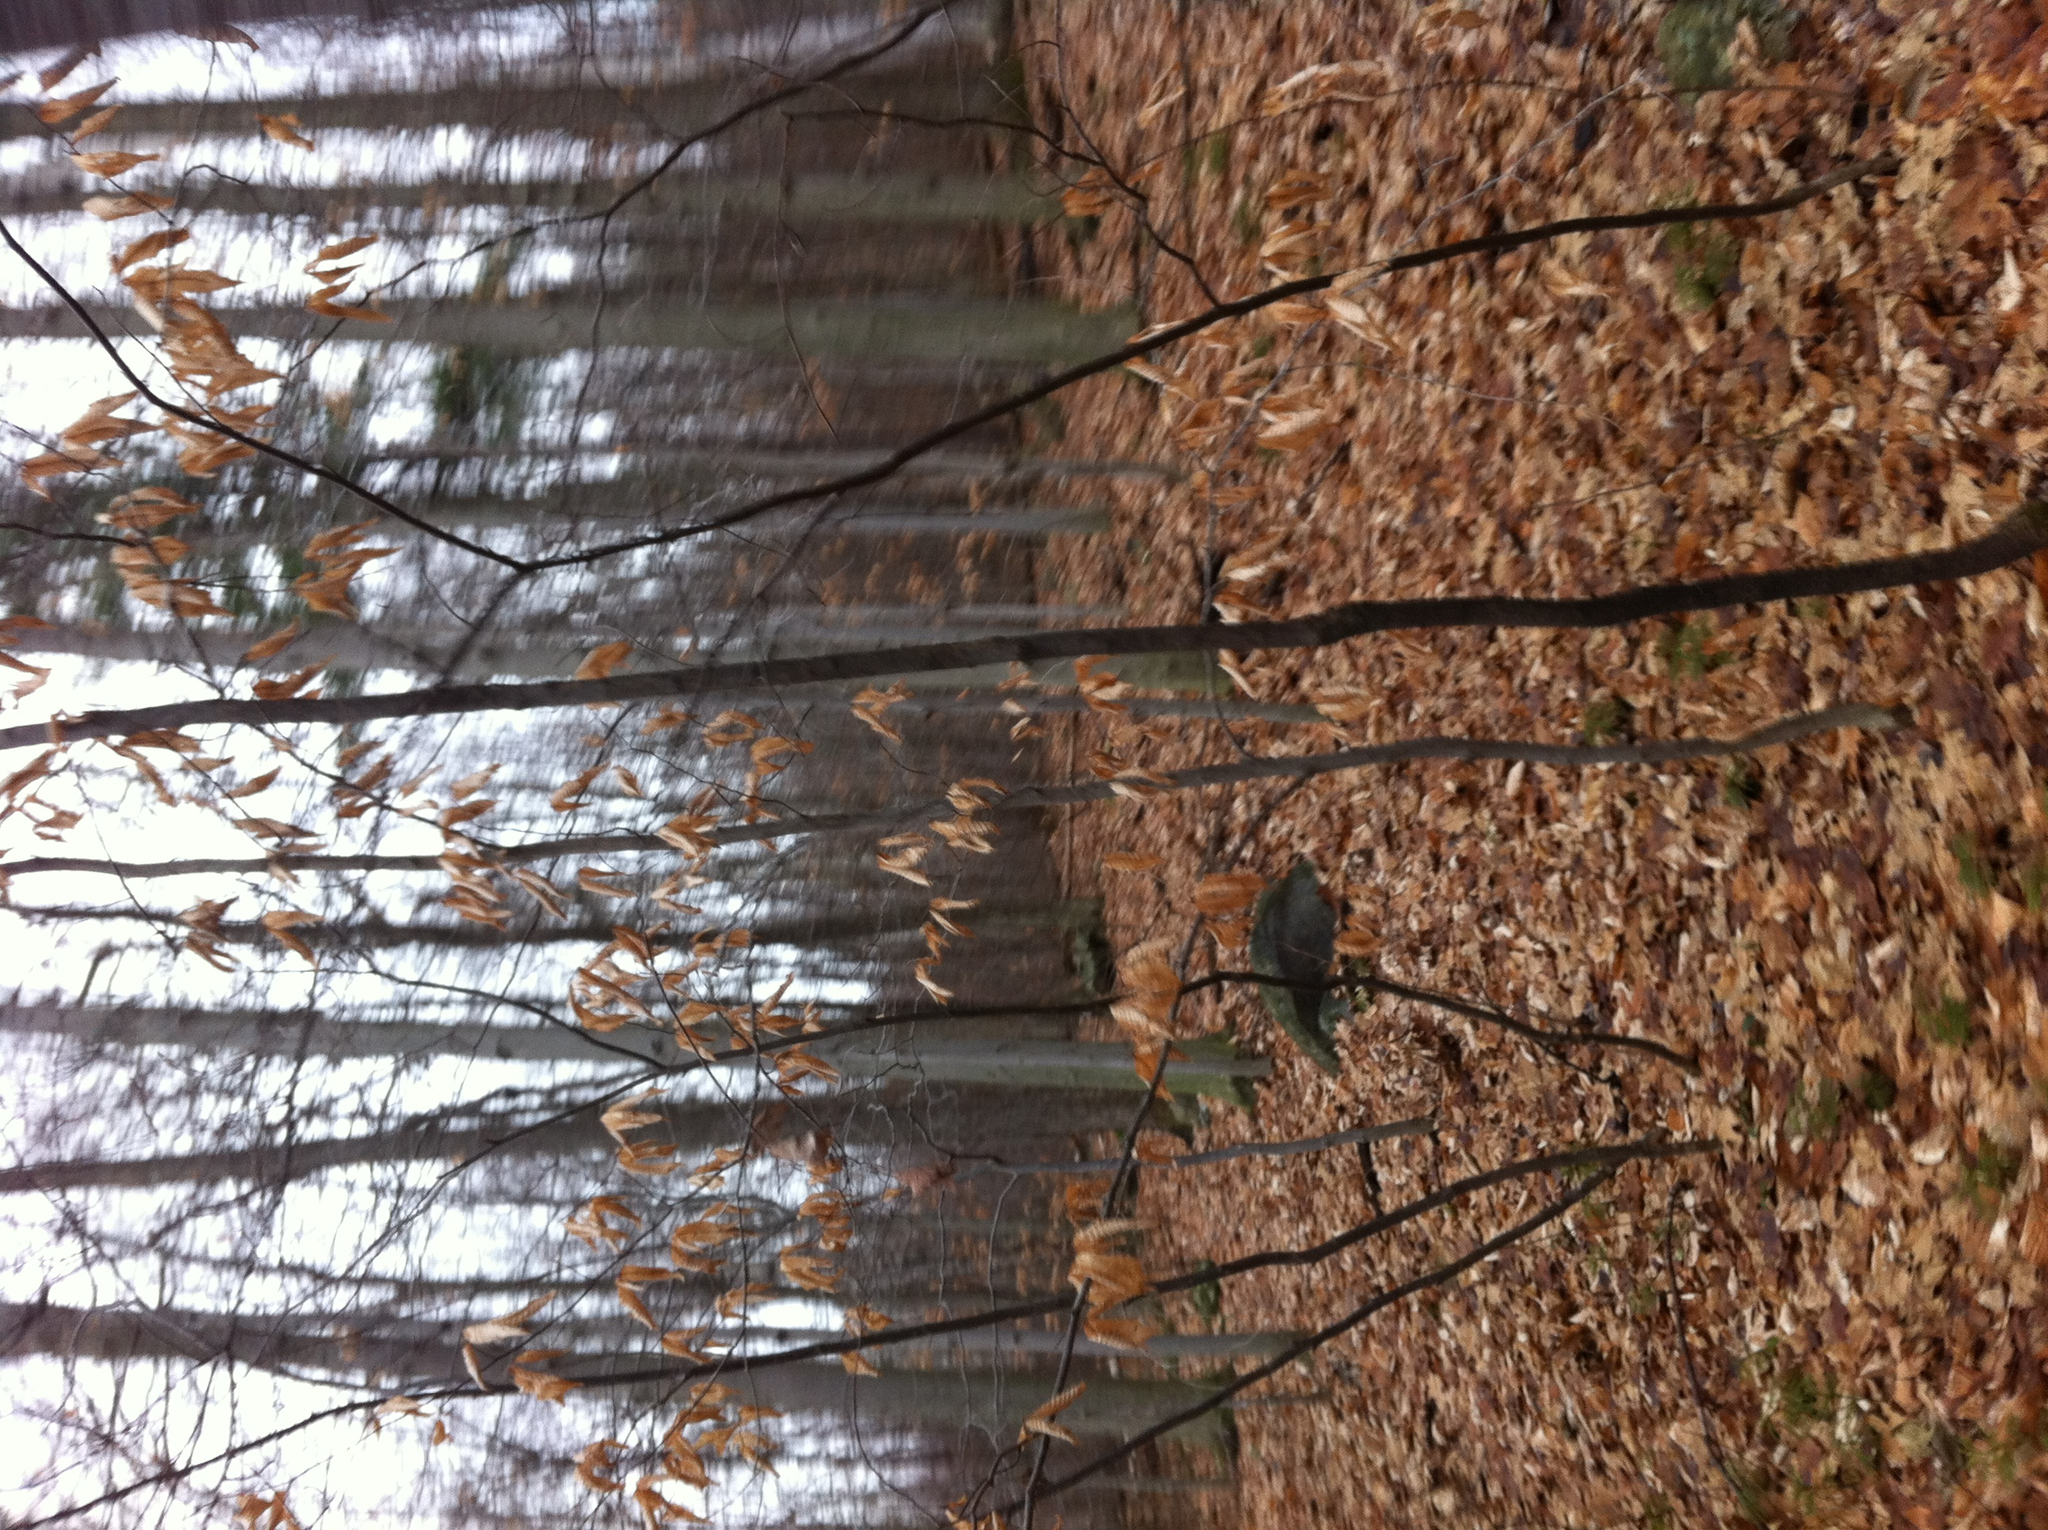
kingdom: Plantae
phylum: Tracheophyta
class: Magnoliopsida
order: Fagales
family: Fagaceae
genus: Fagus
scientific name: Fagus grandifolia
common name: American beech
